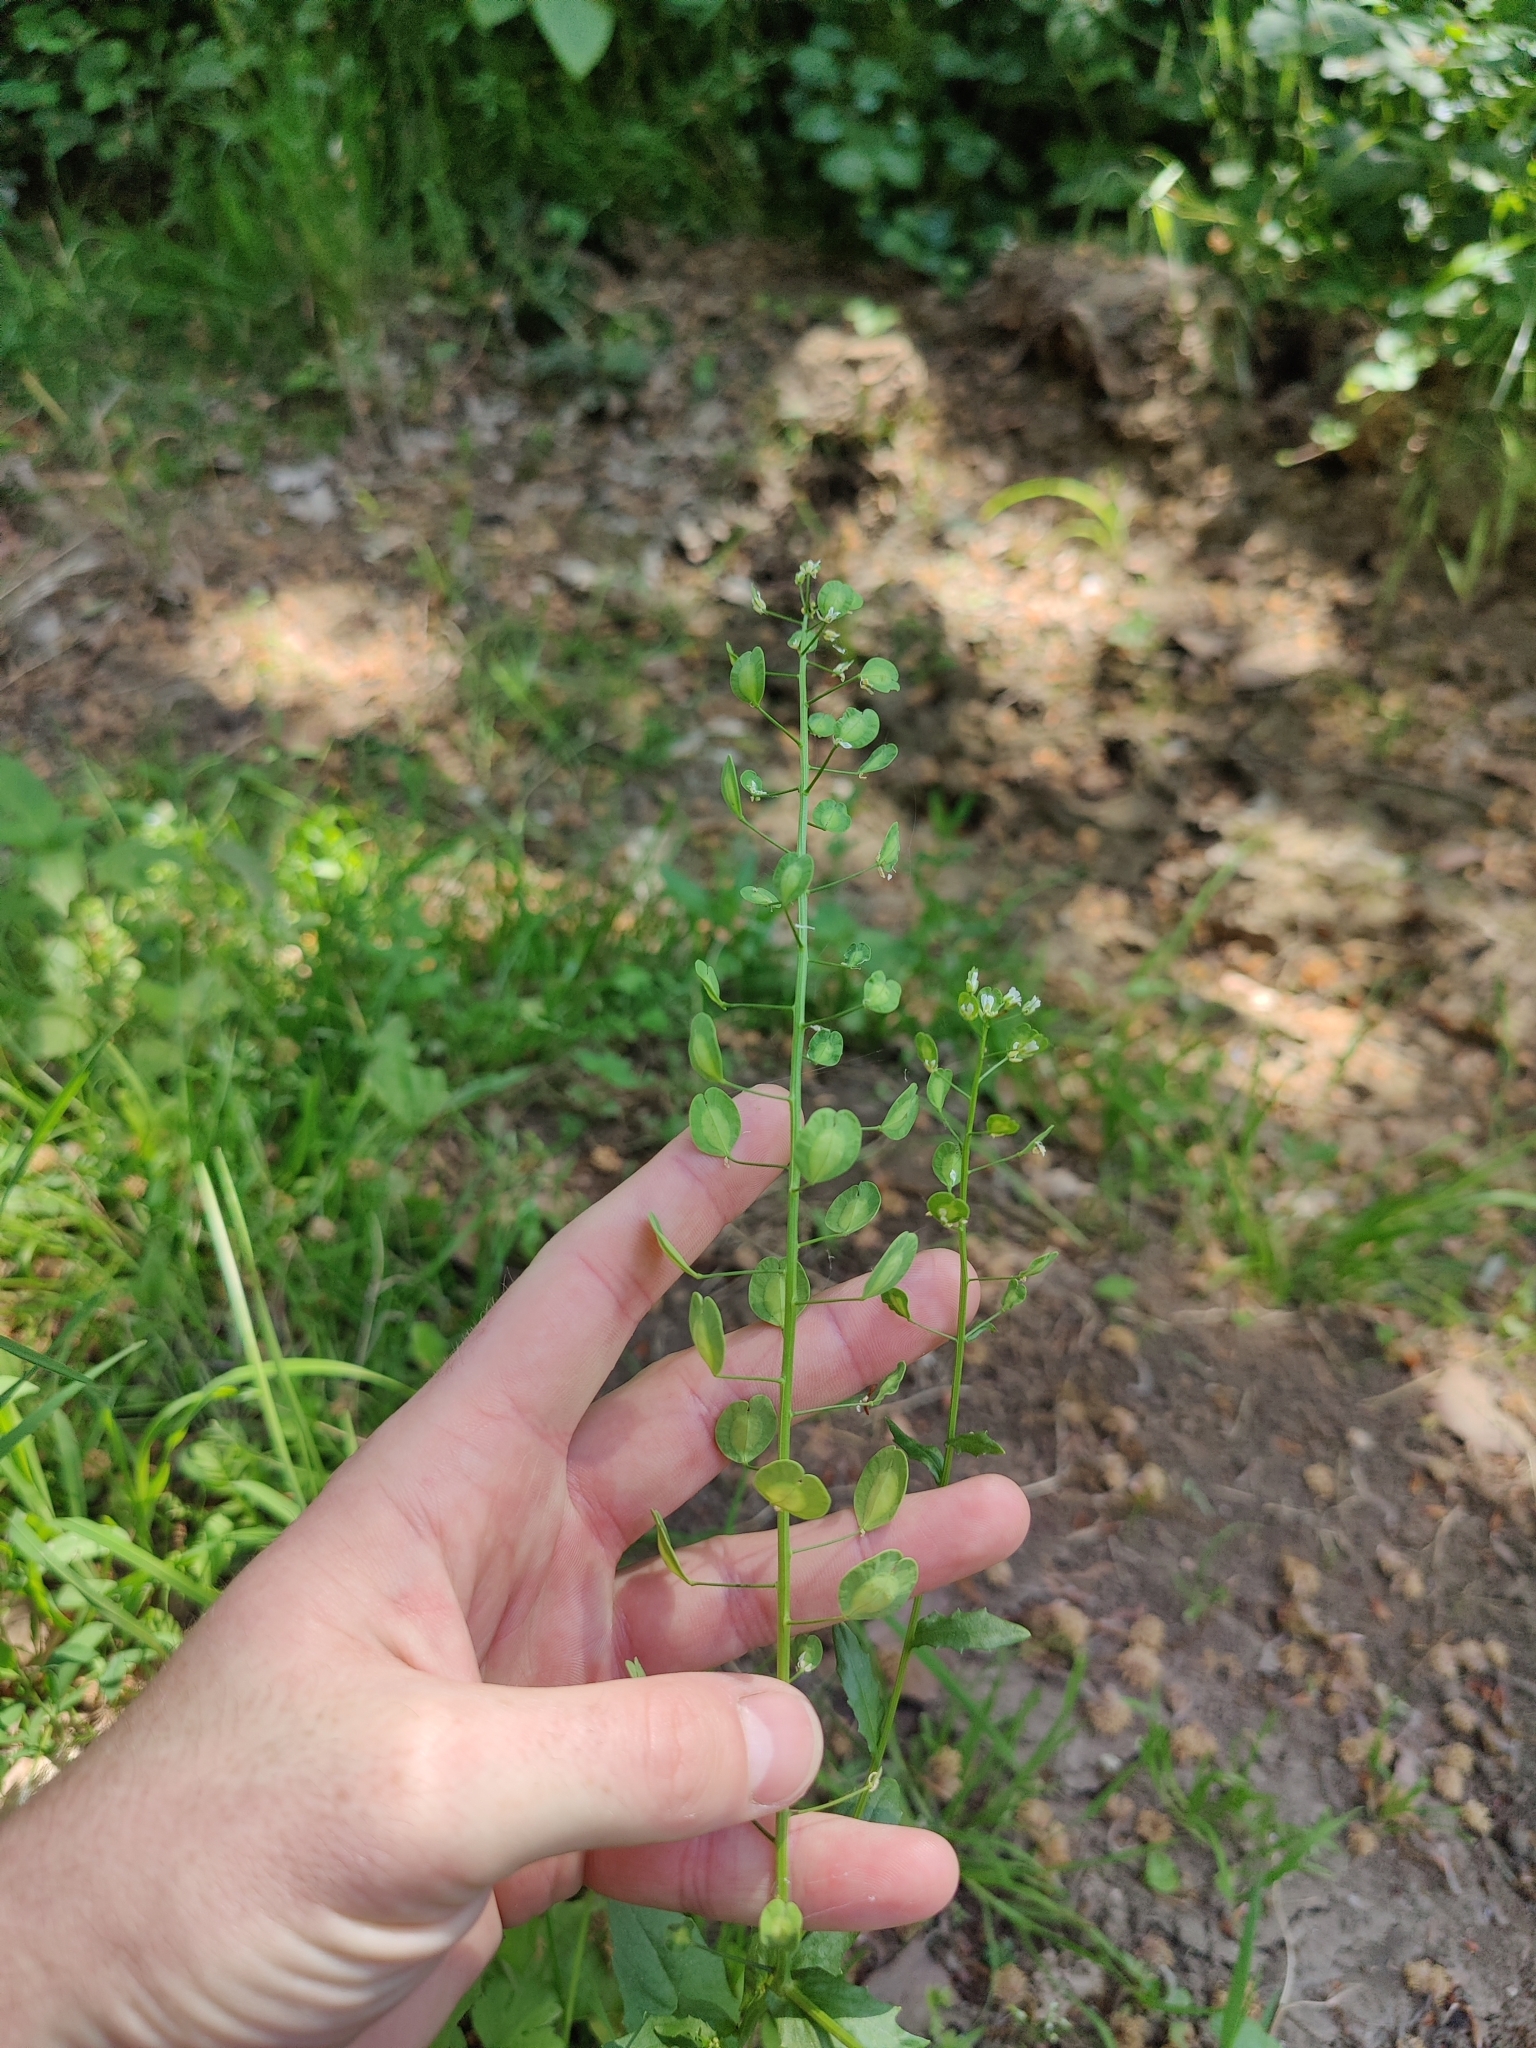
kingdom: Plantae
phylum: Tracheophyta
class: Magnoliopsida
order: Brassicales
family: Brassicaceae
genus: Thlaspi
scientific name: Thlaspi arvense
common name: Field pennycress
